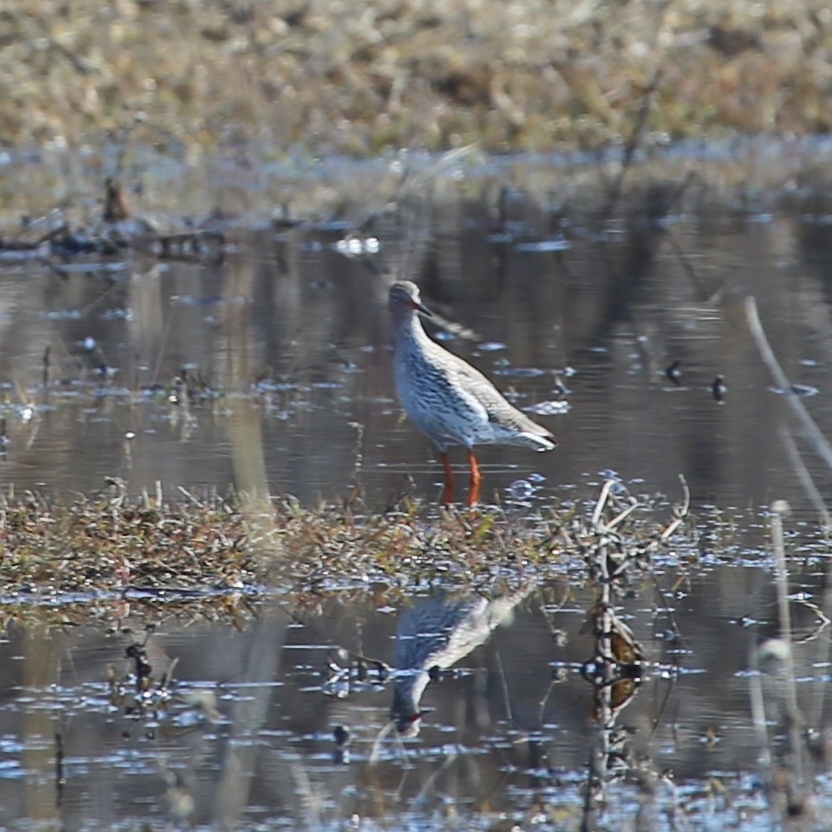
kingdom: Animalia
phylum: Chordata
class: Aves
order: Charadriiformes
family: Scolopacidae
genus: Tringa
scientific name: Tringa totanus
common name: Common redshank
